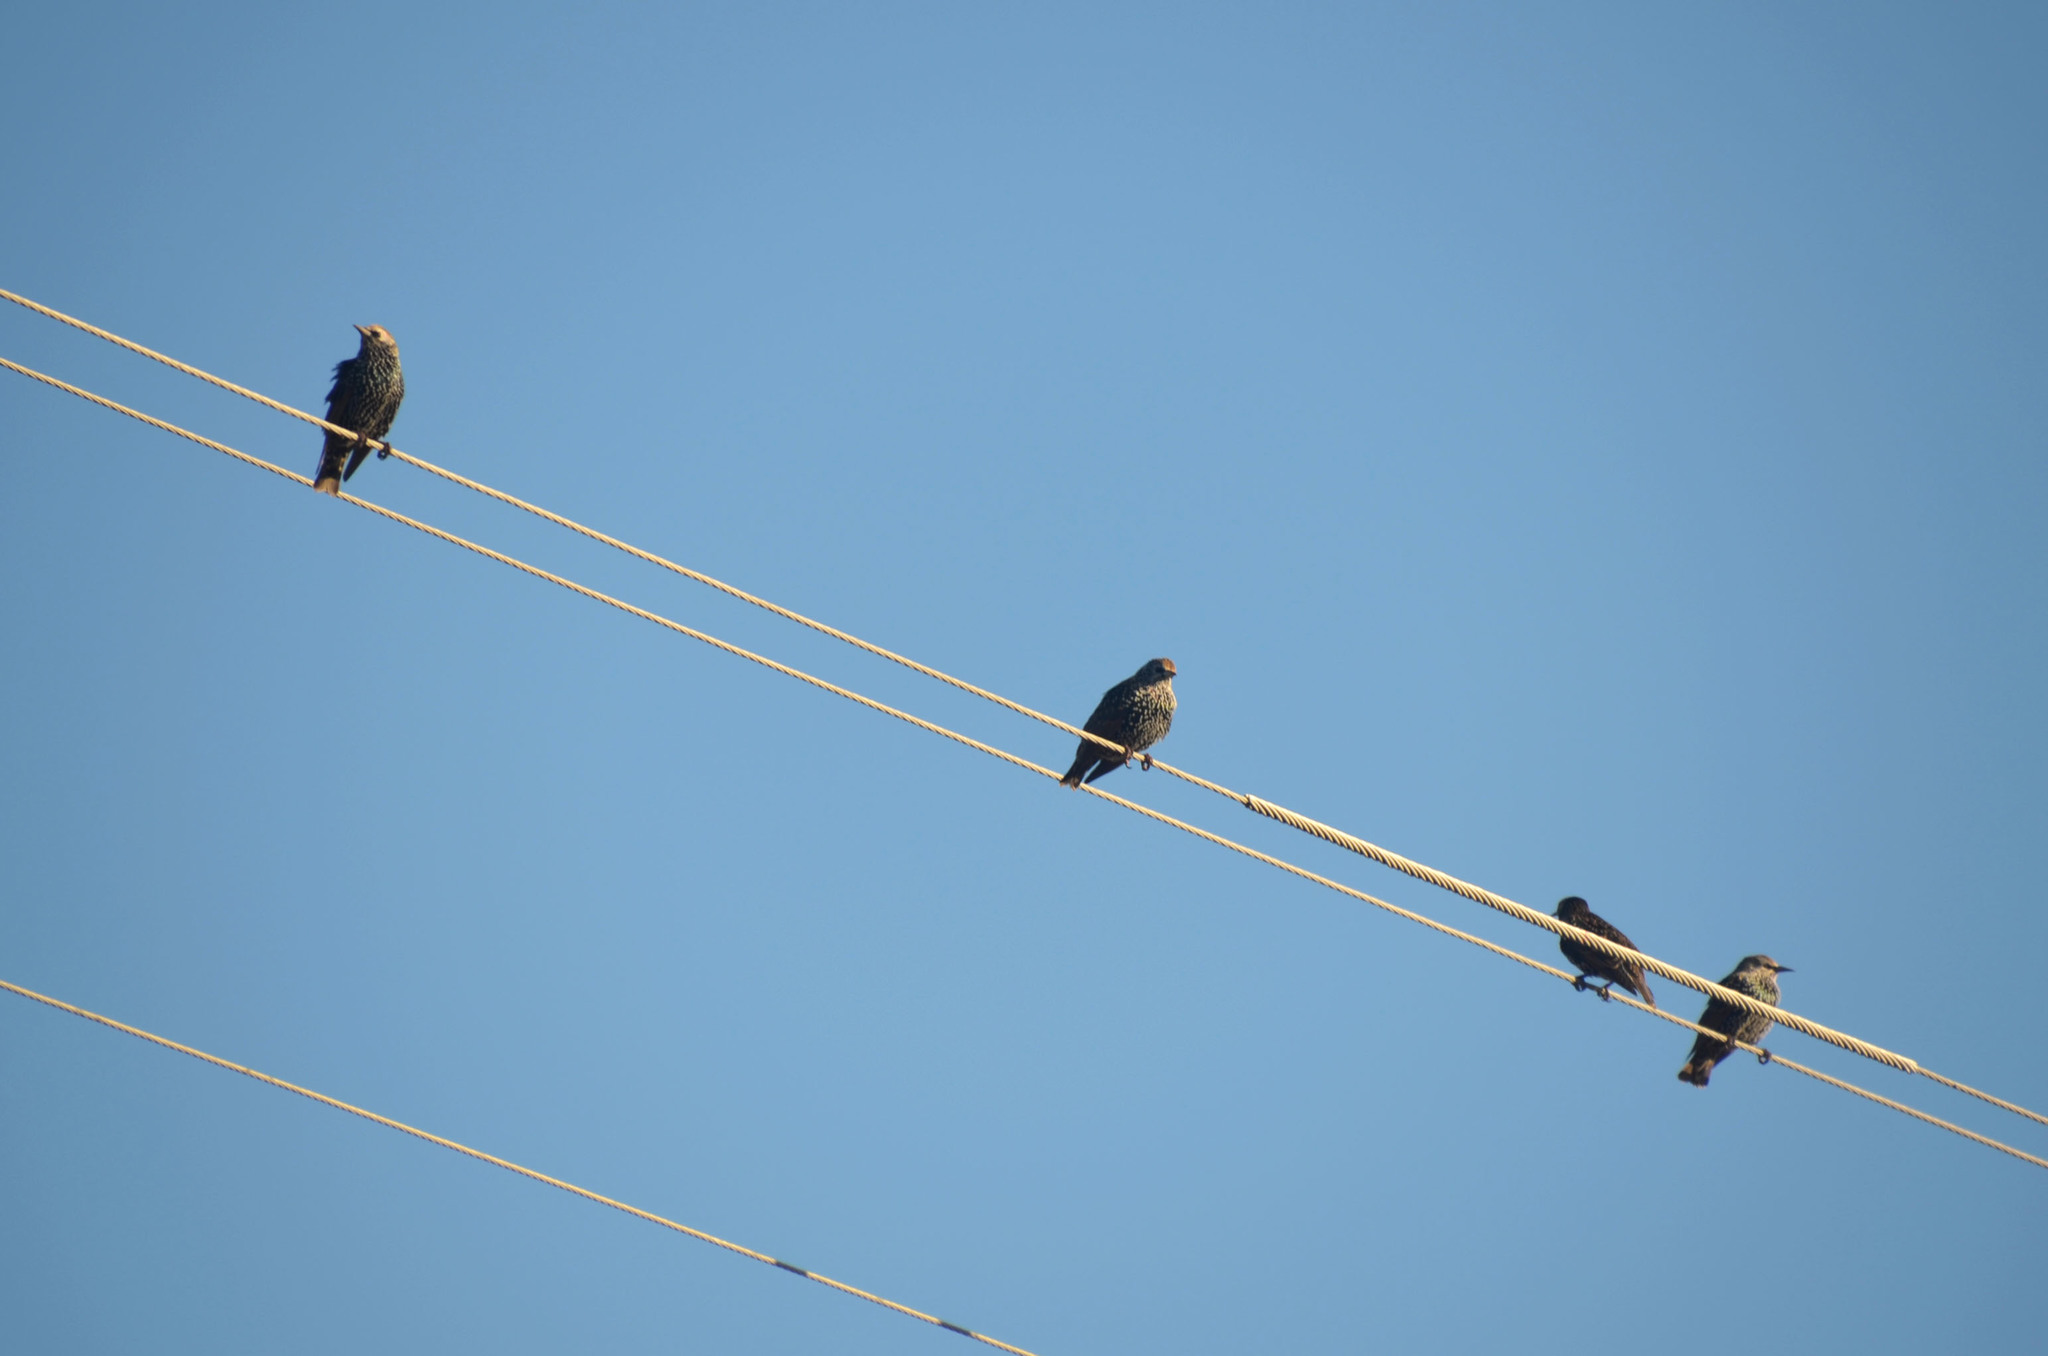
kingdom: Animalia
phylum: Chordata
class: Aves
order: Passeriformes
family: Sturnidae
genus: Sturnus
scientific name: Sturnus vulgaris
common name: Common starling
